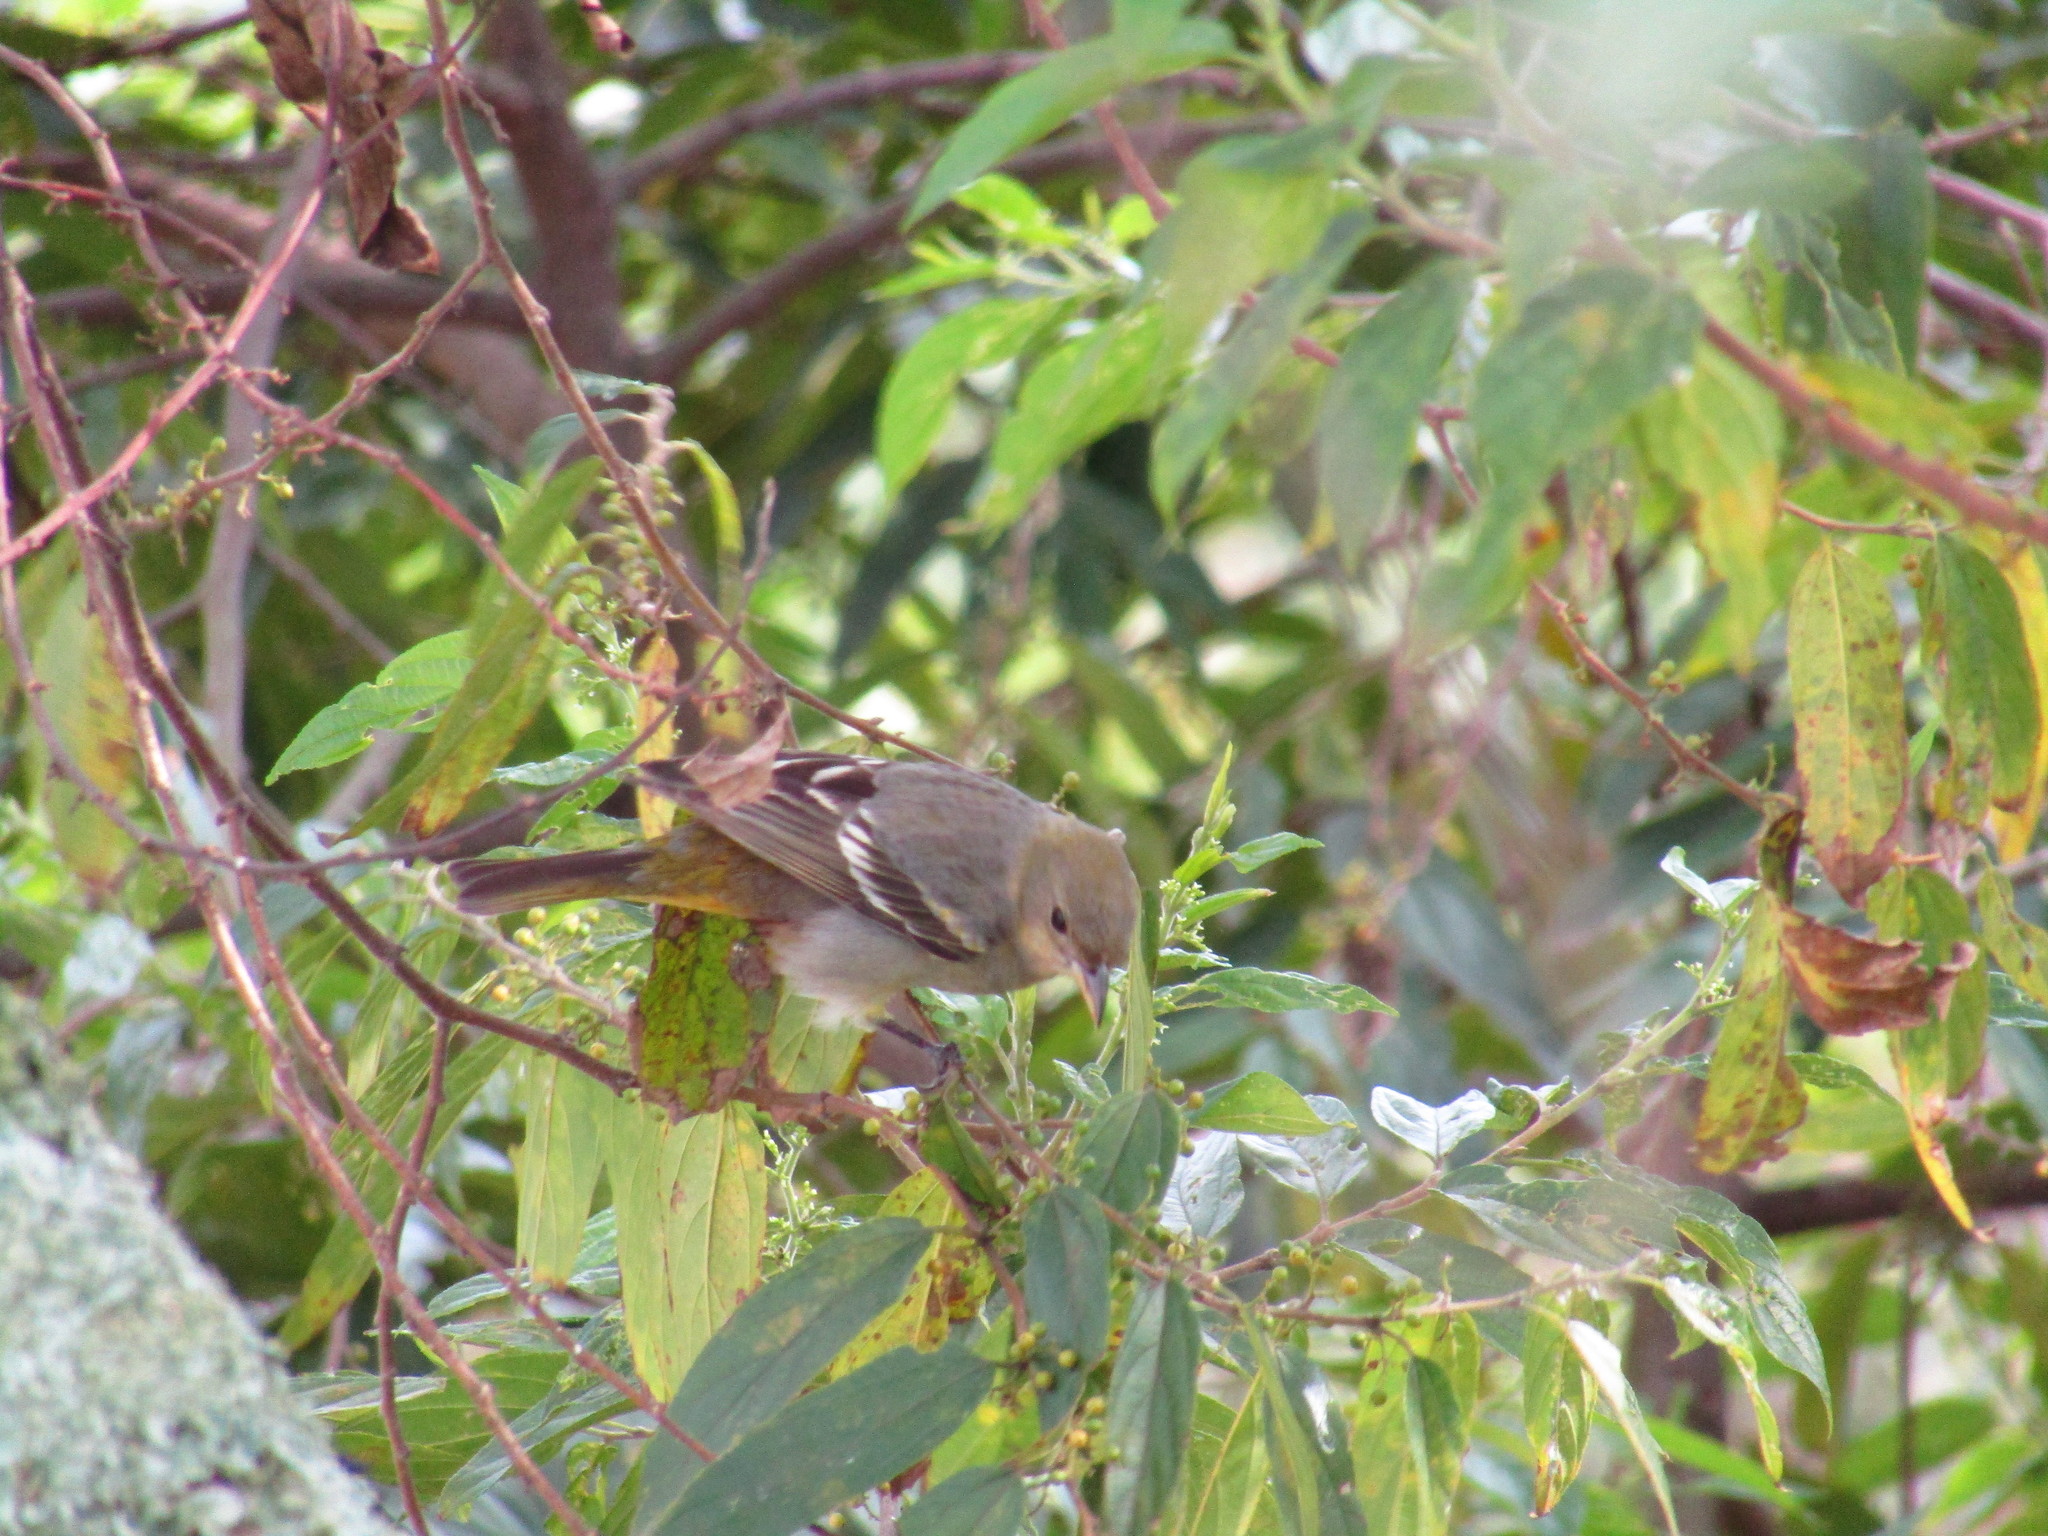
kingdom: Animalia
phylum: Chordata
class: Aves
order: Passeriformes
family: Icteridae
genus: Icterus
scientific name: Icterus galbula
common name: Baltimore oriole
